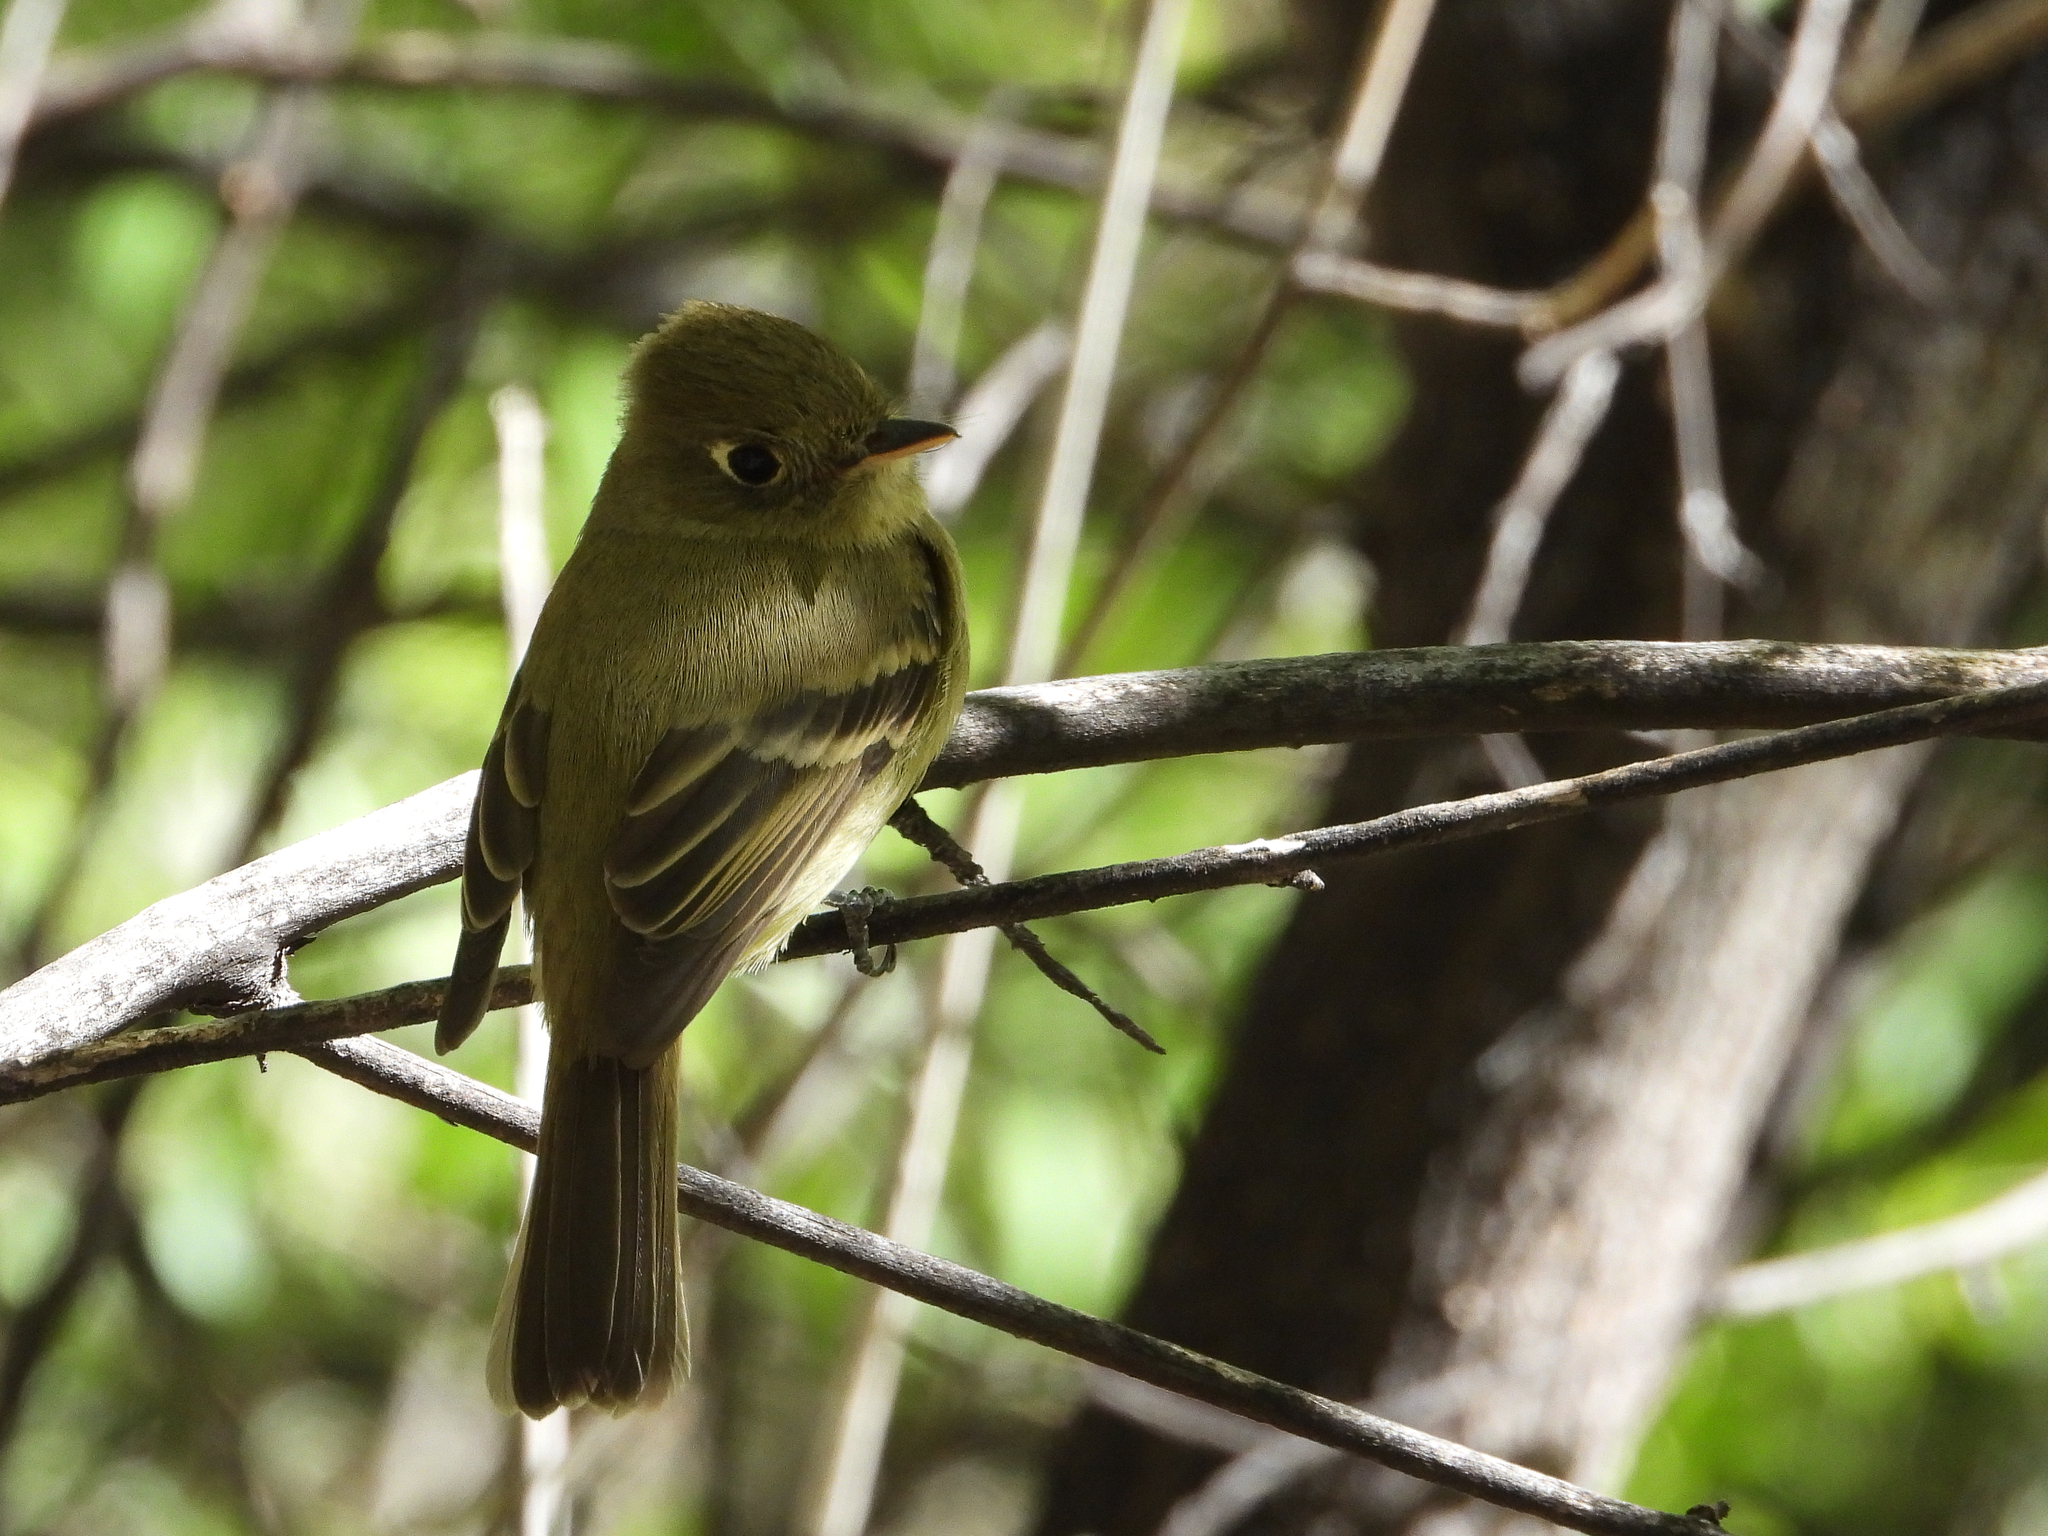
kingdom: Animalia
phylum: Chordata
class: Aves
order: Passeriformes
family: Tyrannidae
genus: Empidonax
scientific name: Empidonax difficilis
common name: Pacific-slope flycatcher
